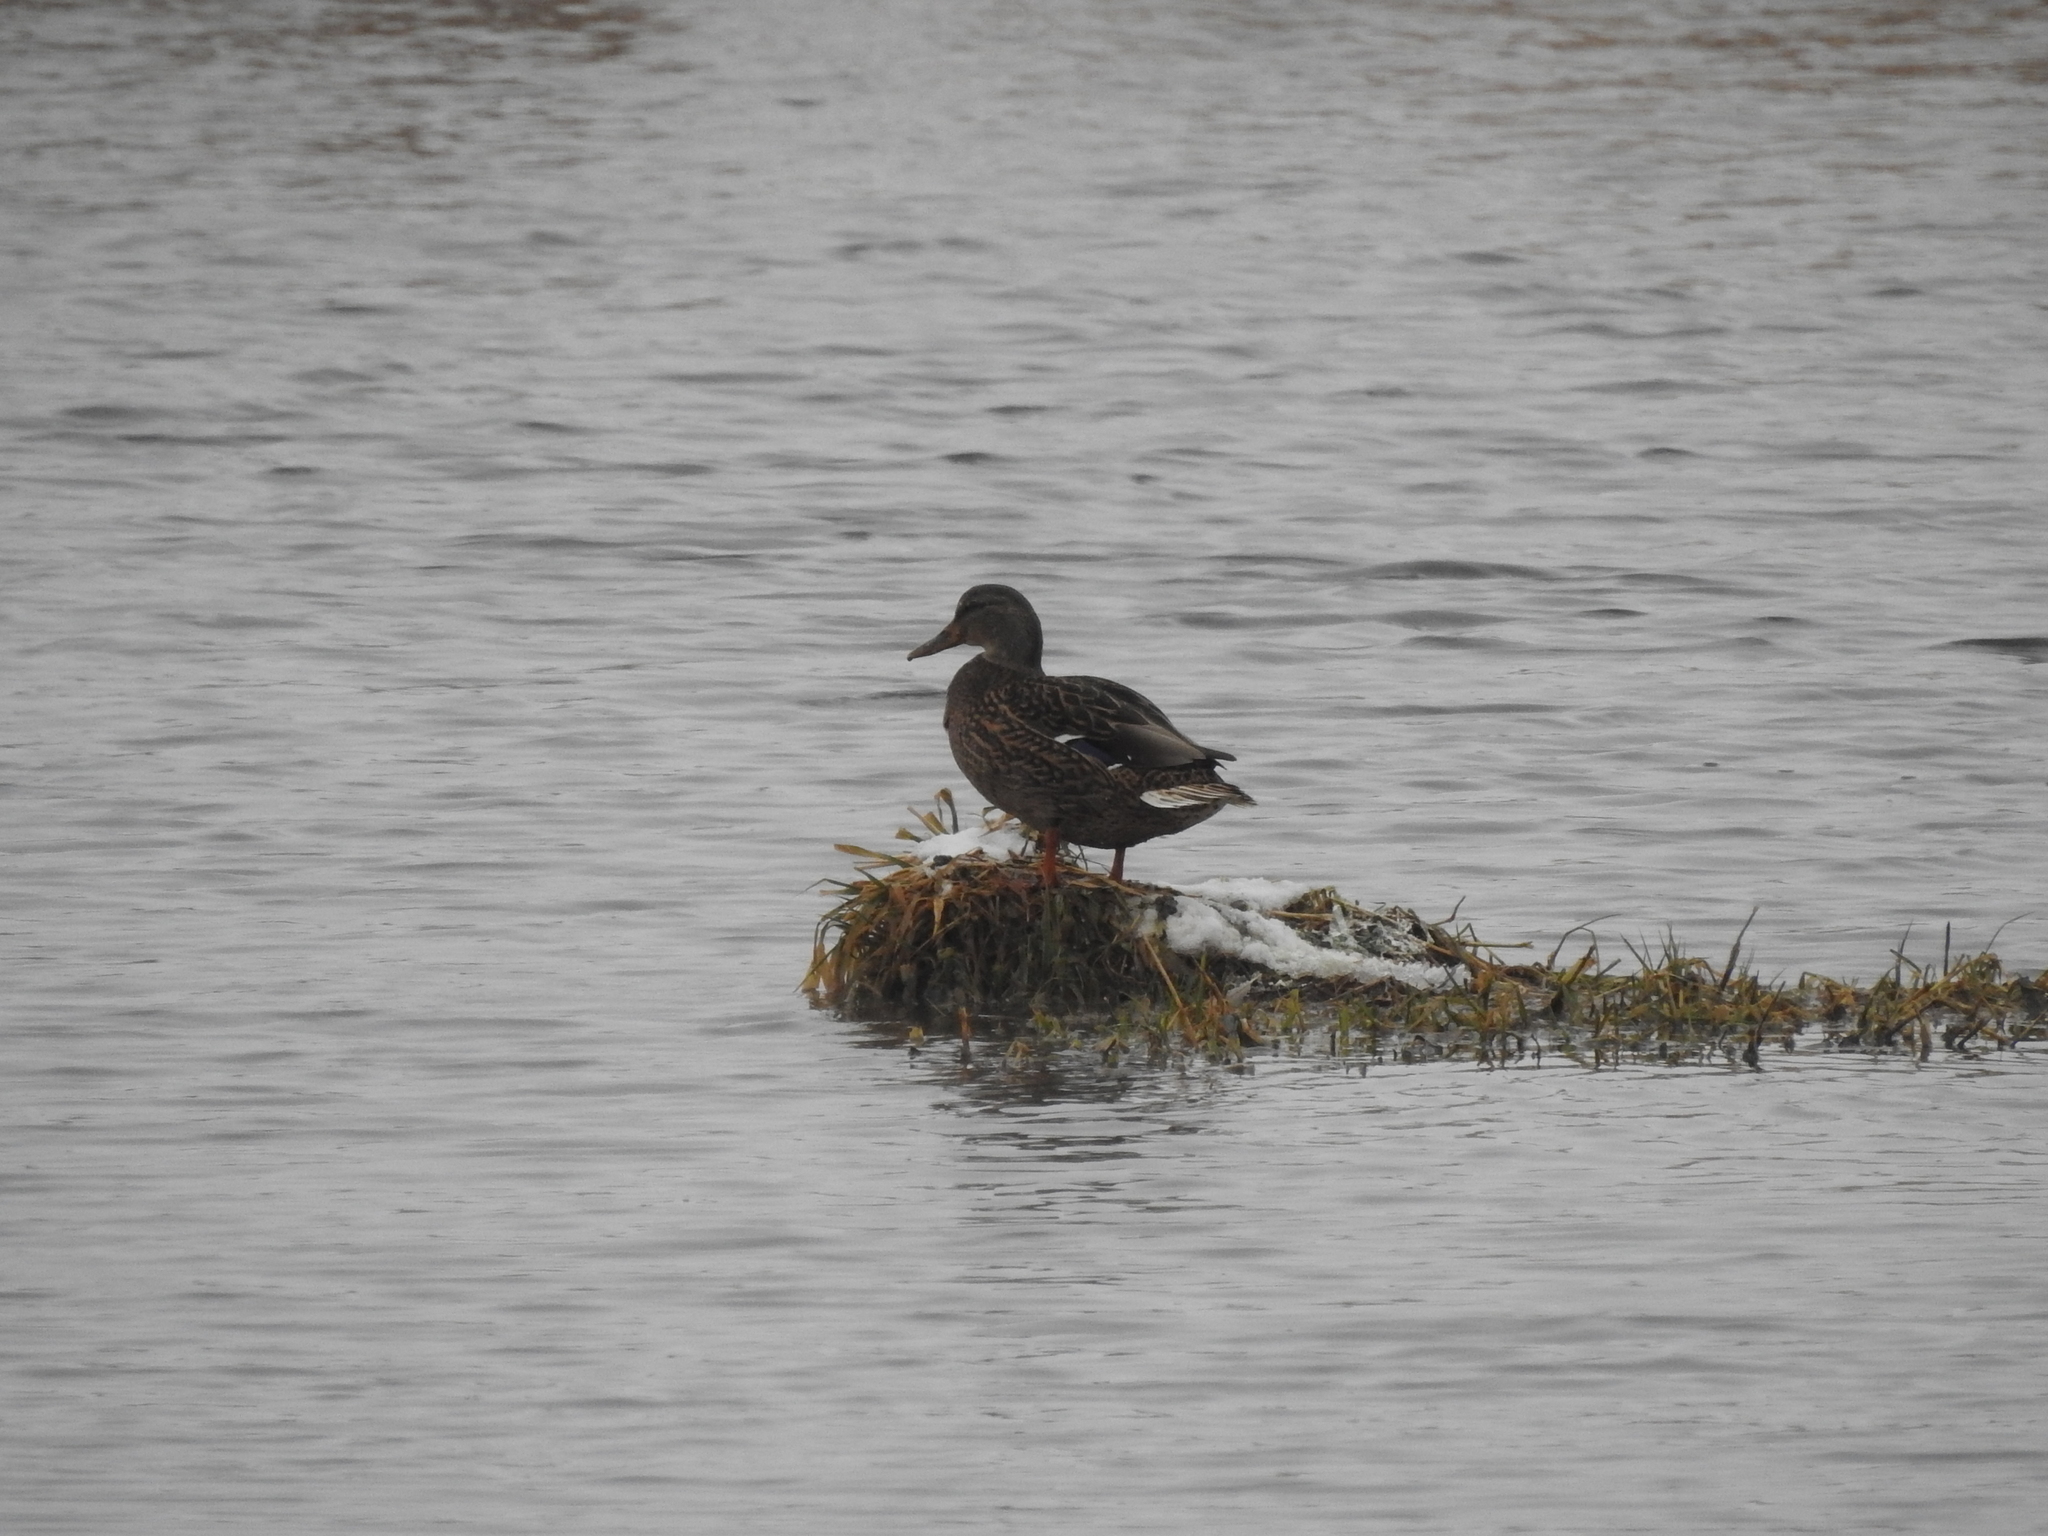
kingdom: Animalia
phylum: Chordata
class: Aves
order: Anseriformes
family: Anatidae
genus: Anas
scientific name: Anas platyrhynchos
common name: Mallard
